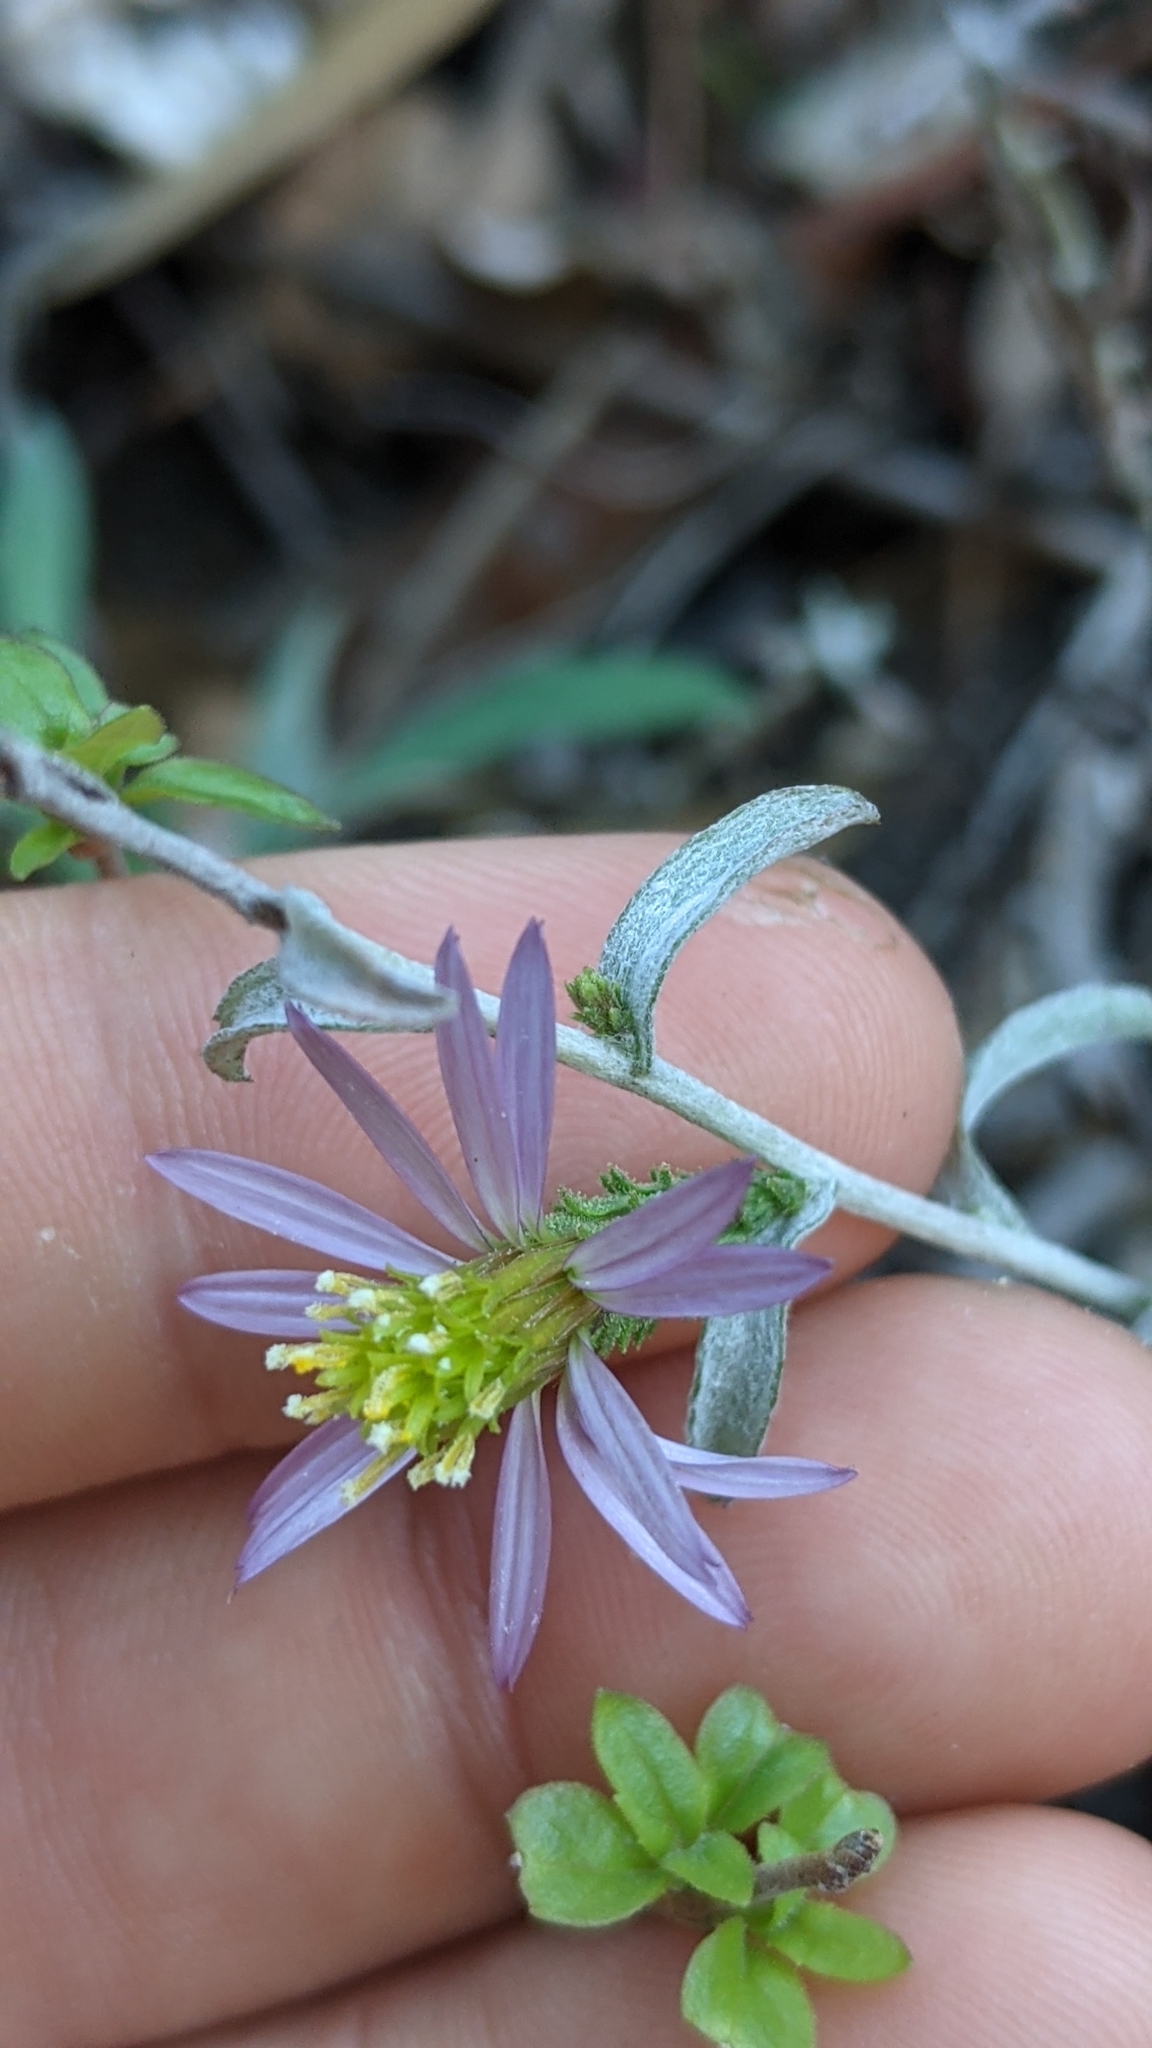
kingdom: Plantae
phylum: Tracheophyta
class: Magnoliopsida
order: Asterales
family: Asteraceae
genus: Corethrogyne
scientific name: Corethrogyne filaginifolia
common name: Sand-aster
